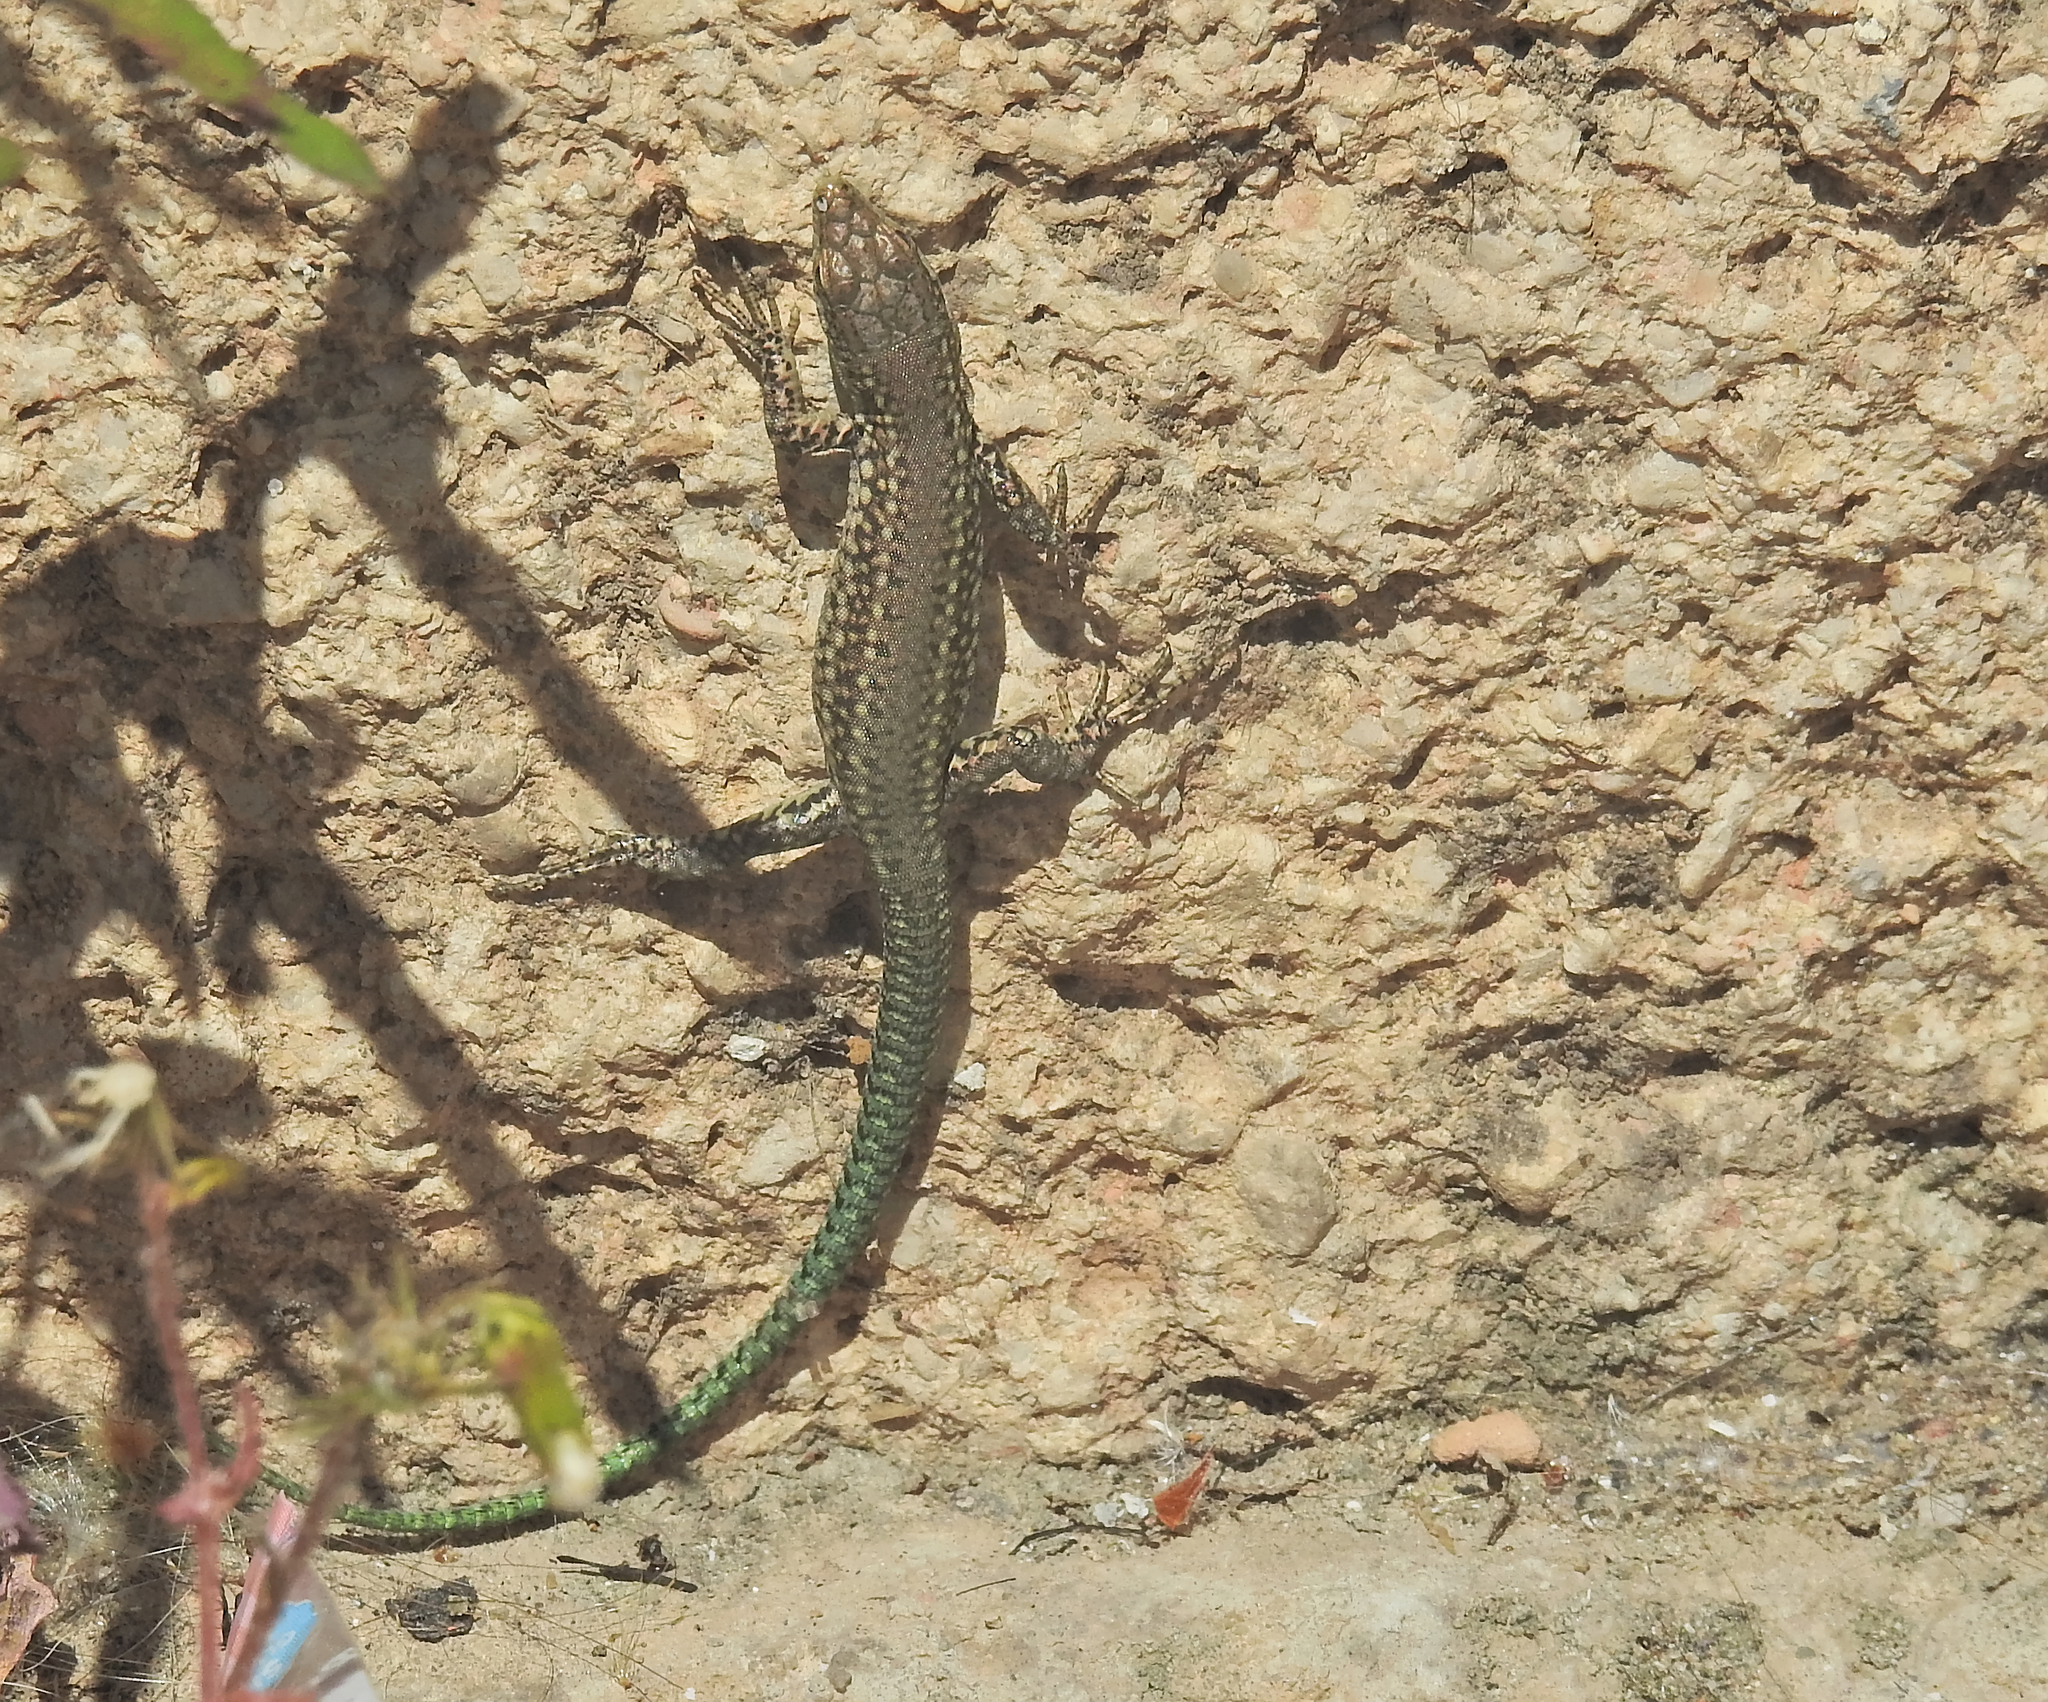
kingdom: Animalia
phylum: Chordata
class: Squamata
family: Lacertidae
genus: Podarcis
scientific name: Podarcis vaucheri
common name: Vaucher's wall lizard
